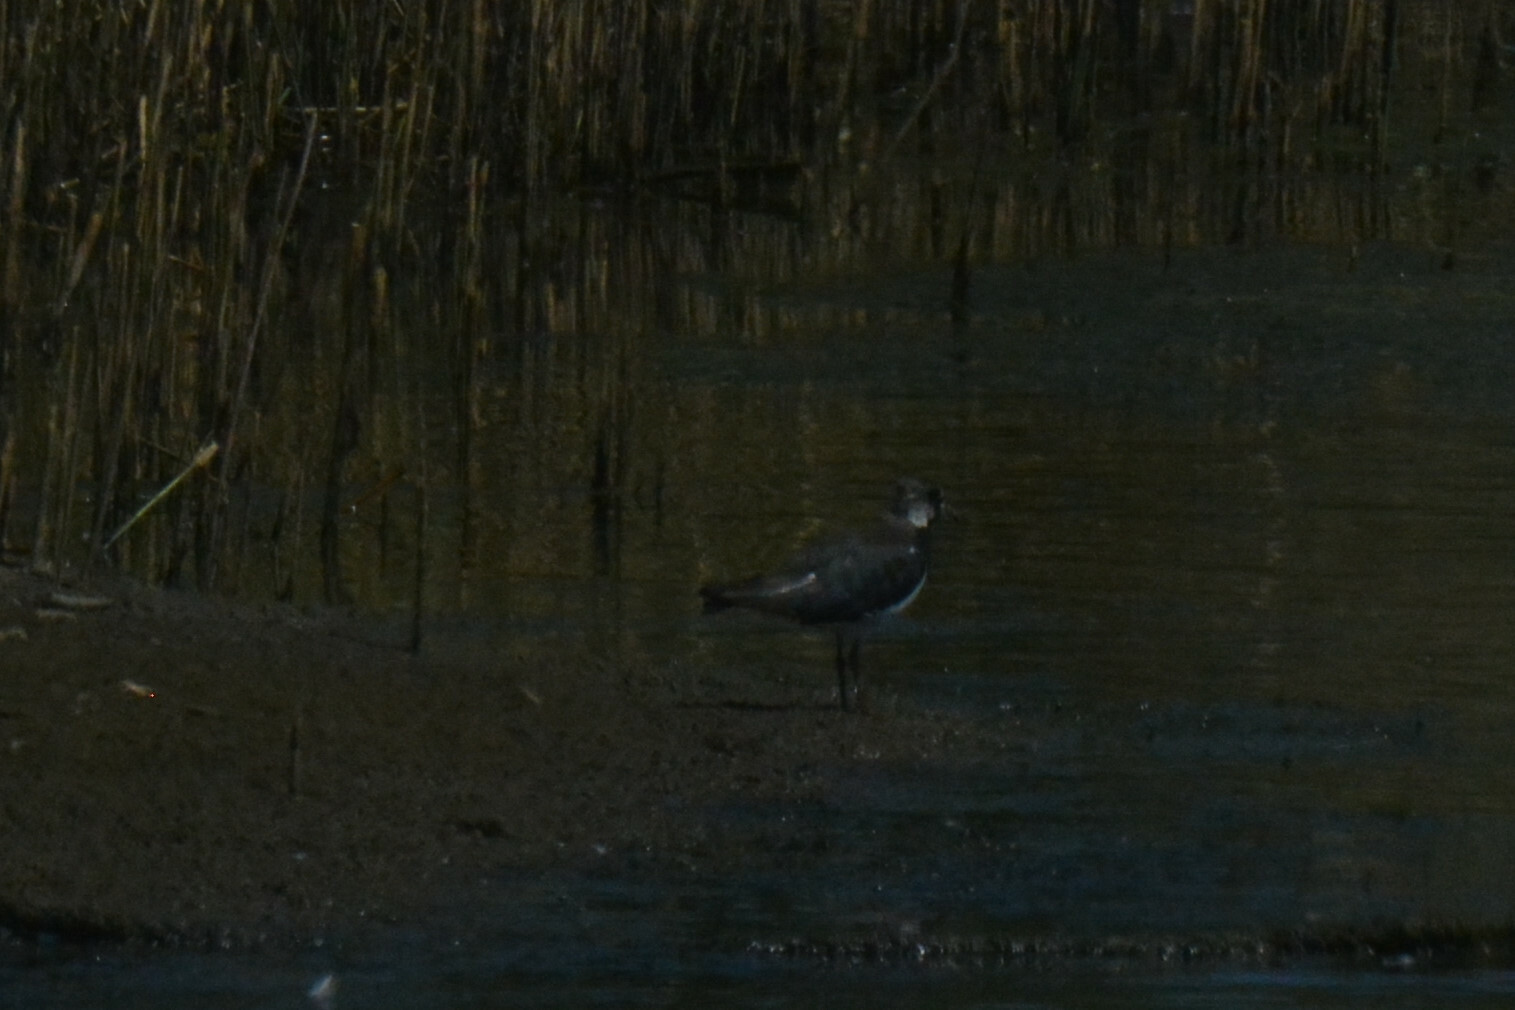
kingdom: Animalia
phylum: Chordata
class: Aves
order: Charadriiformes
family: Charadriidae
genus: Vanellus
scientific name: Vanellus vanellus
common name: Northern lapwing
